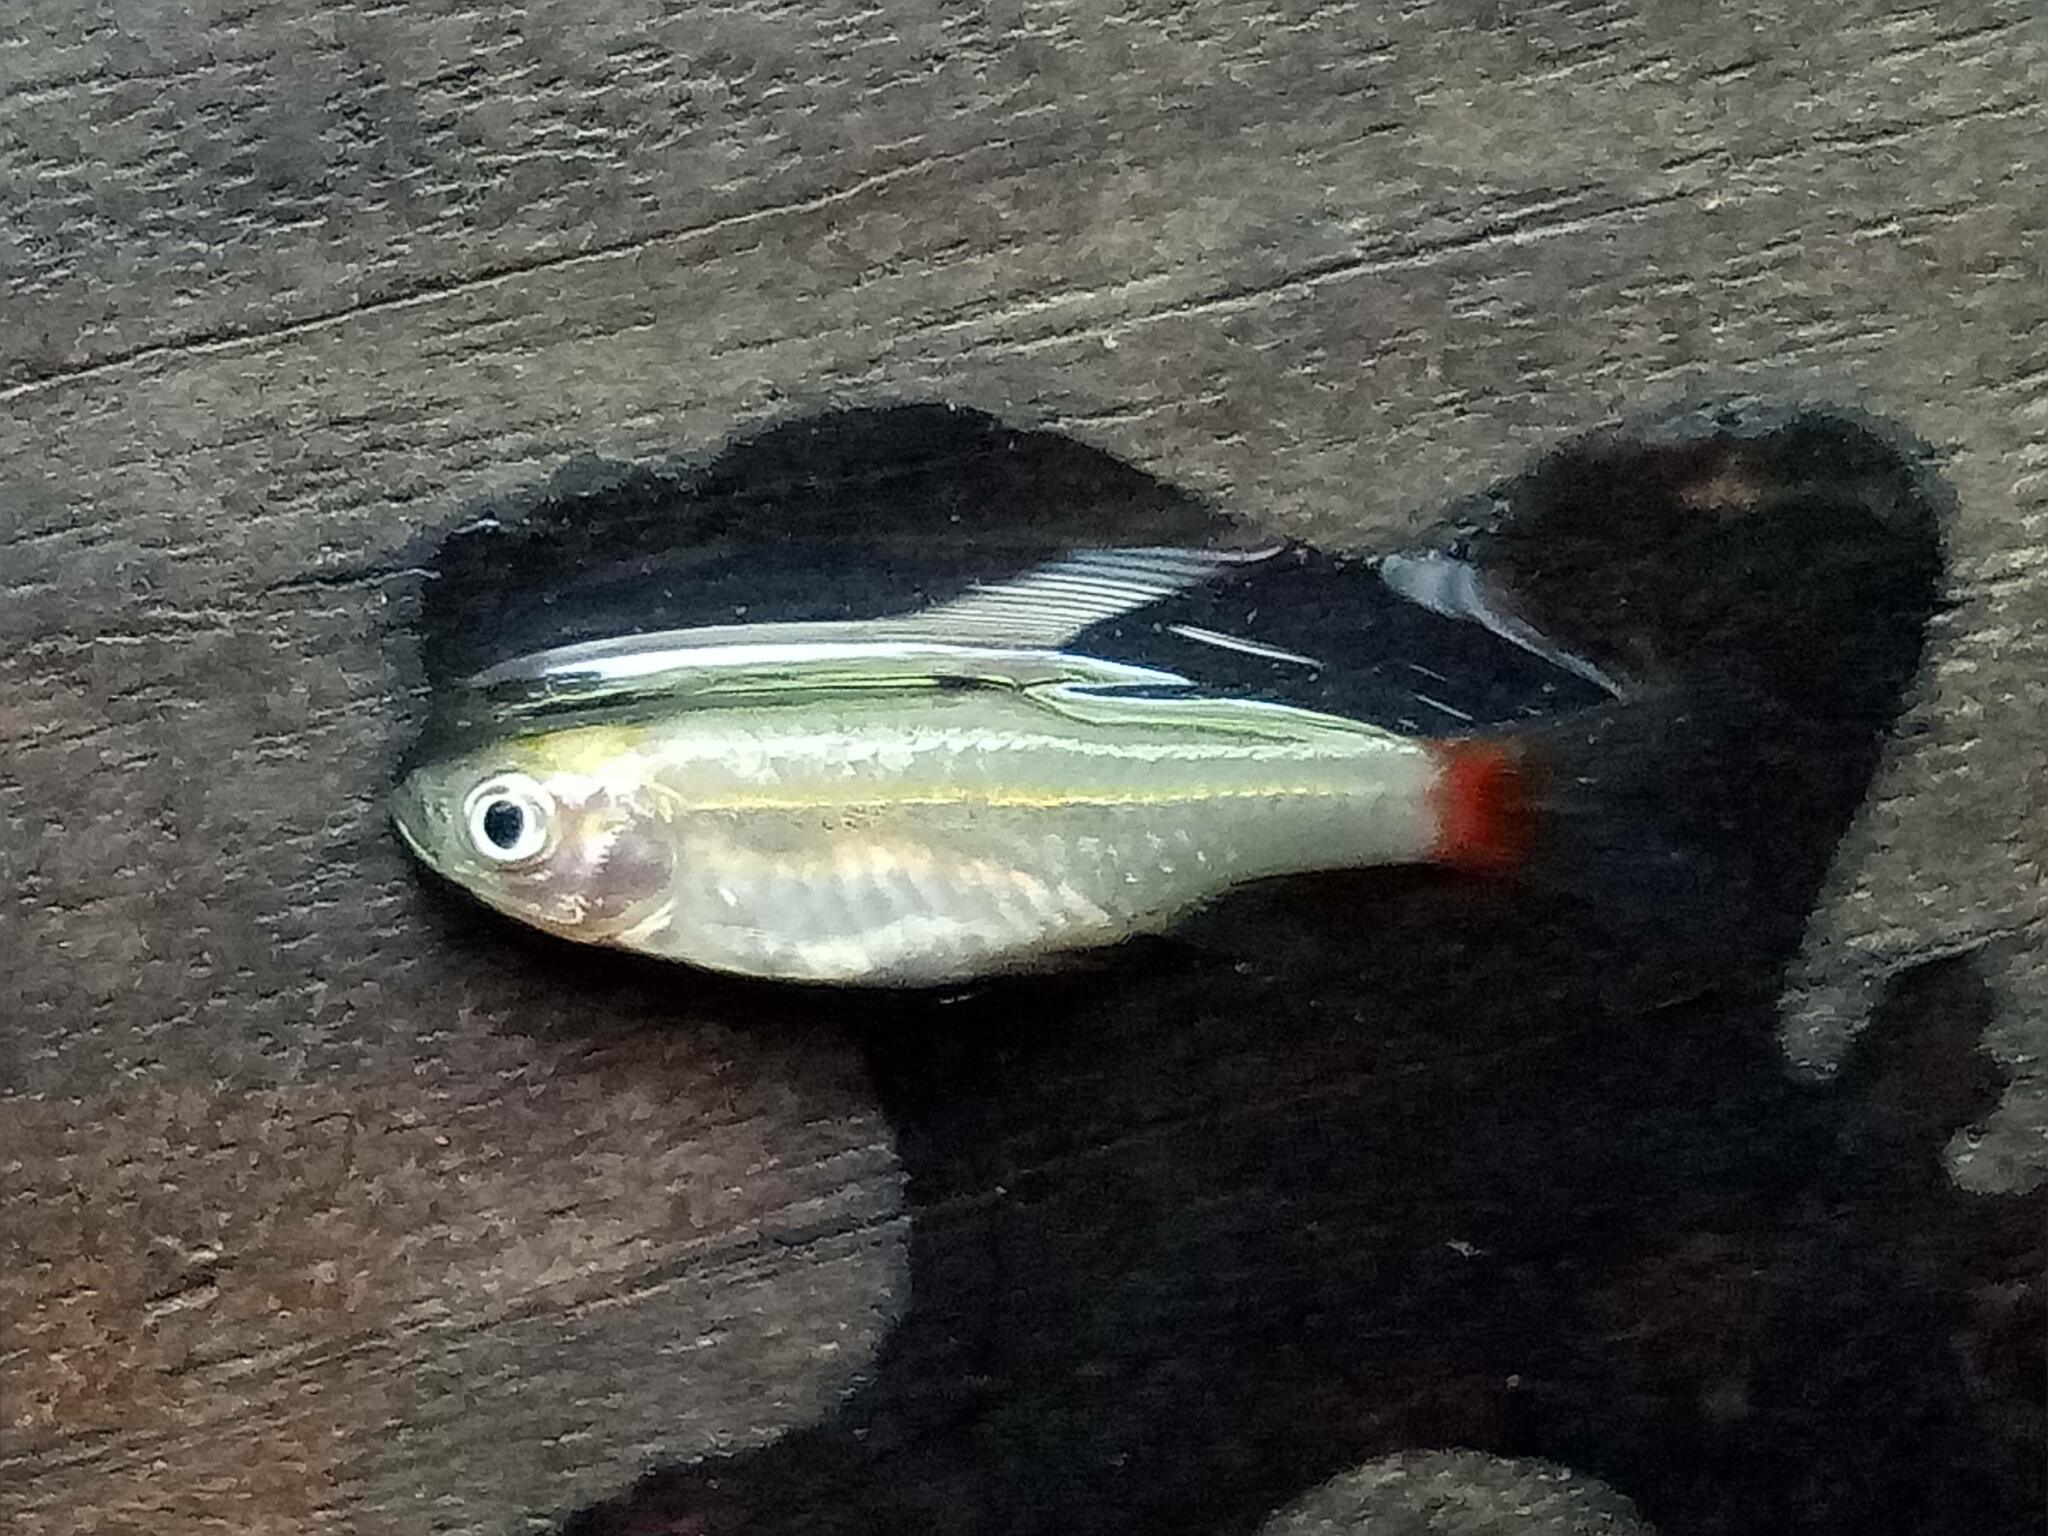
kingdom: Animalia
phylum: Chordata
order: Cypriniformes
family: Cyprinidae
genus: Rasbora
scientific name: Rasbora borapetensis
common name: Blackline rasbora
